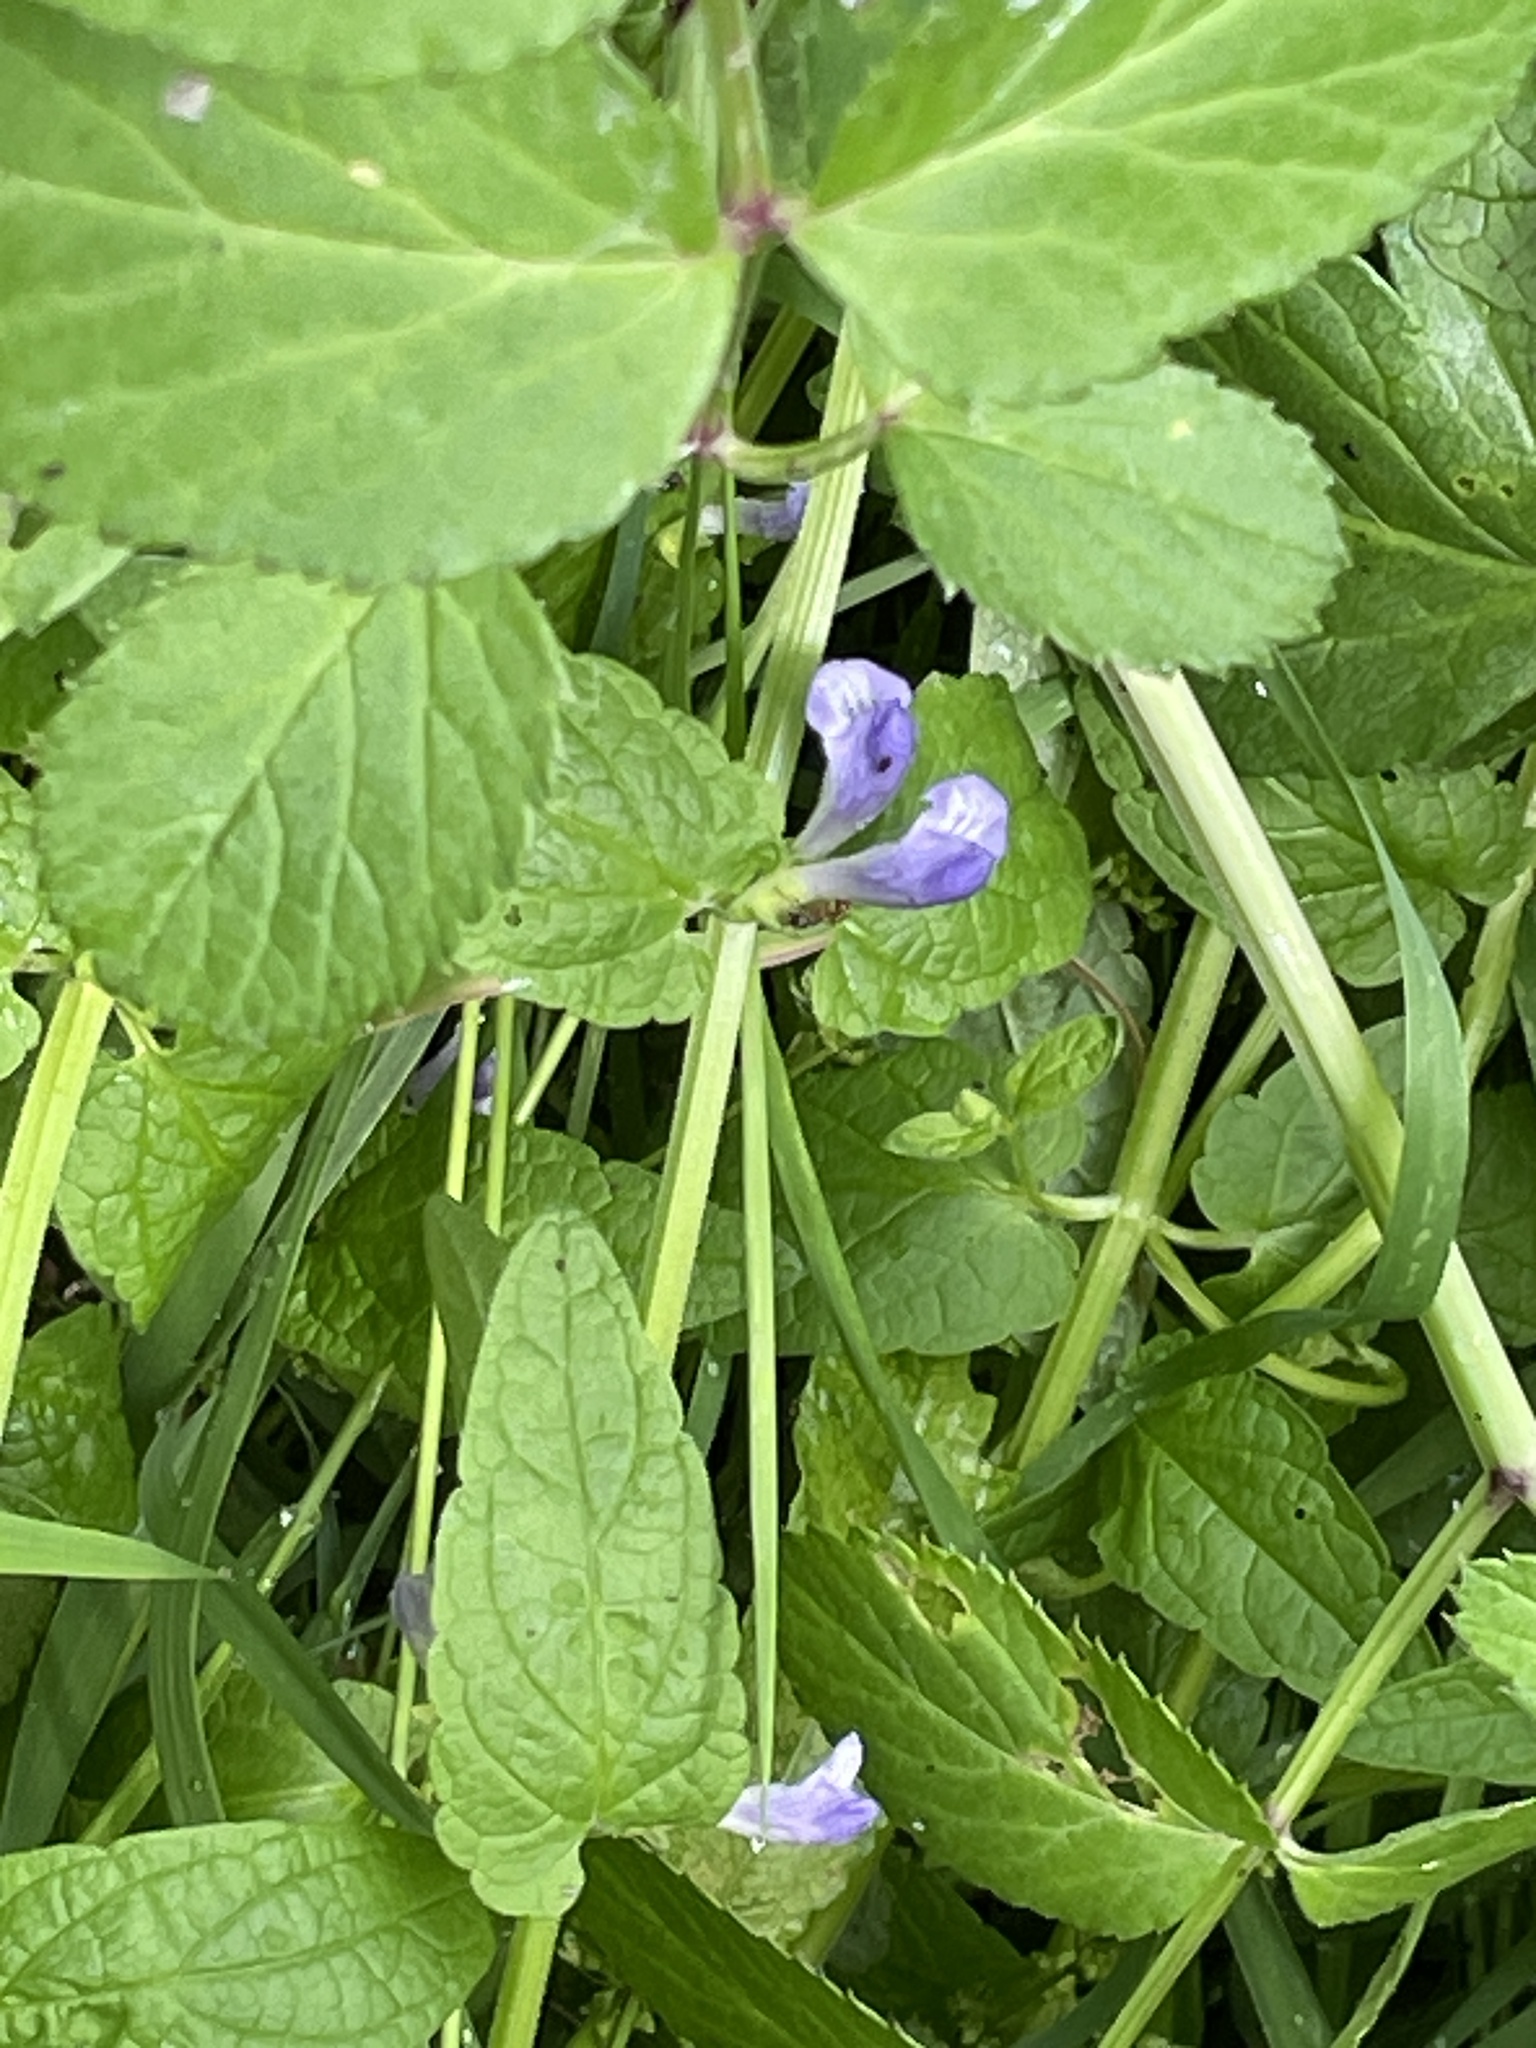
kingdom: Plantae
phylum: Tracheophyta
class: Magnoliopsida
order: Lamiales
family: Lamiaceae
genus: Scutellaria
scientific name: Scutellaria galericulata
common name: Skullcap
